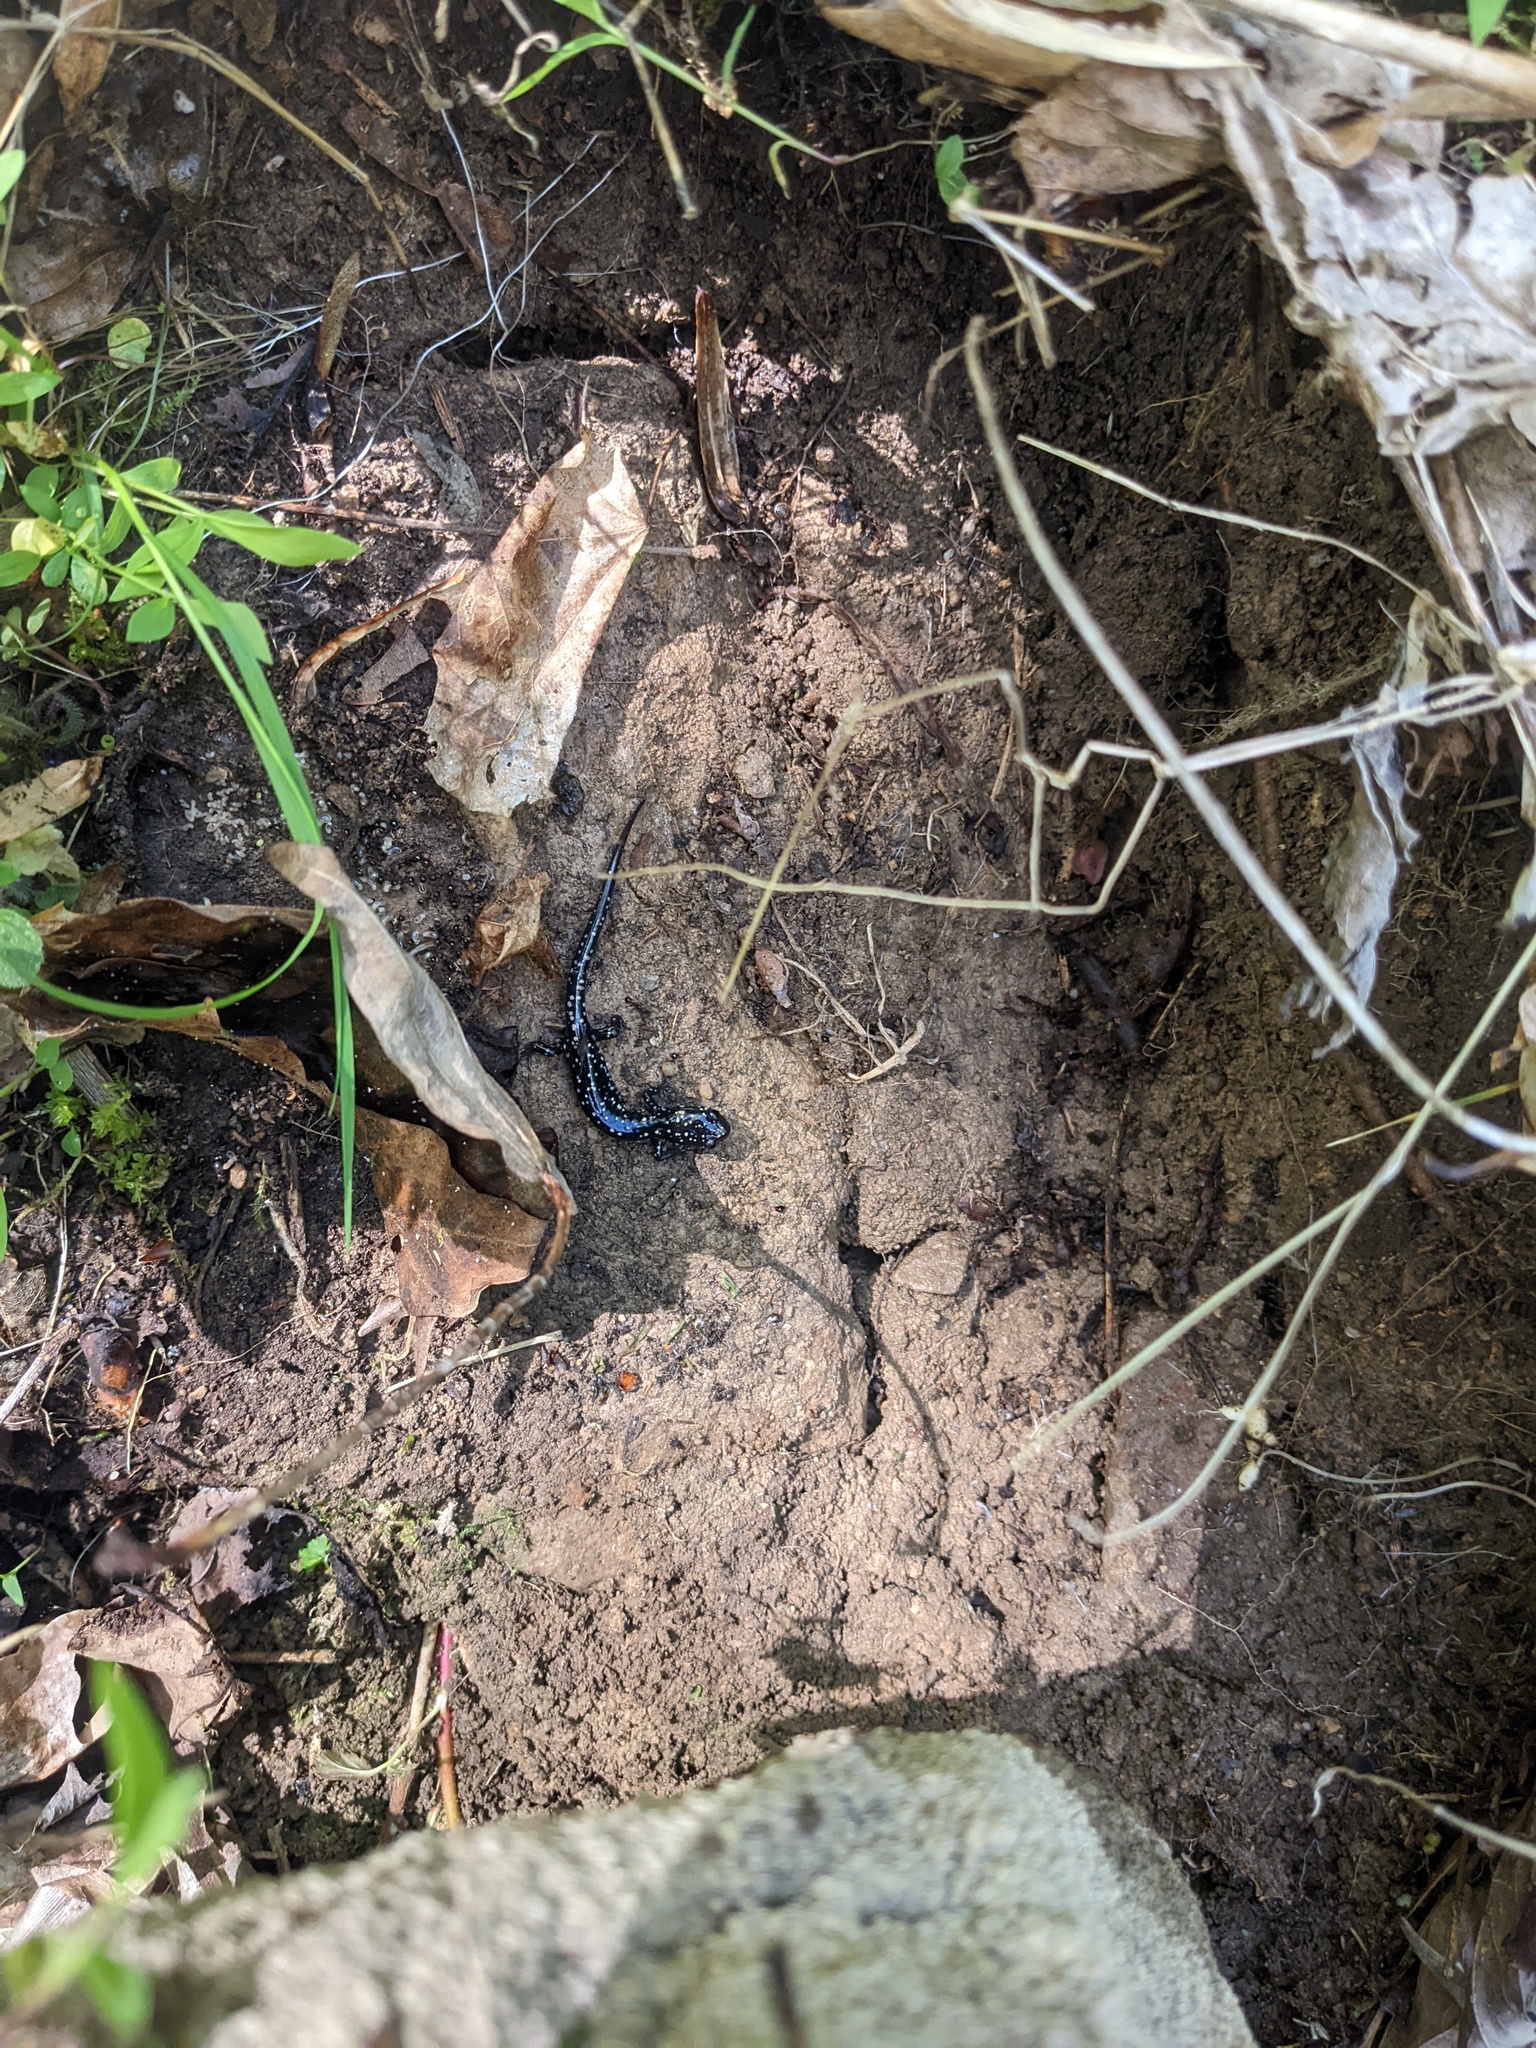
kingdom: Animalia
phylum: Chordata
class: Amphibia
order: Caudata
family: Plethodontidae
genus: Plethodon
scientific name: Plethodon glutinosus
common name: Northern slimy salamander
